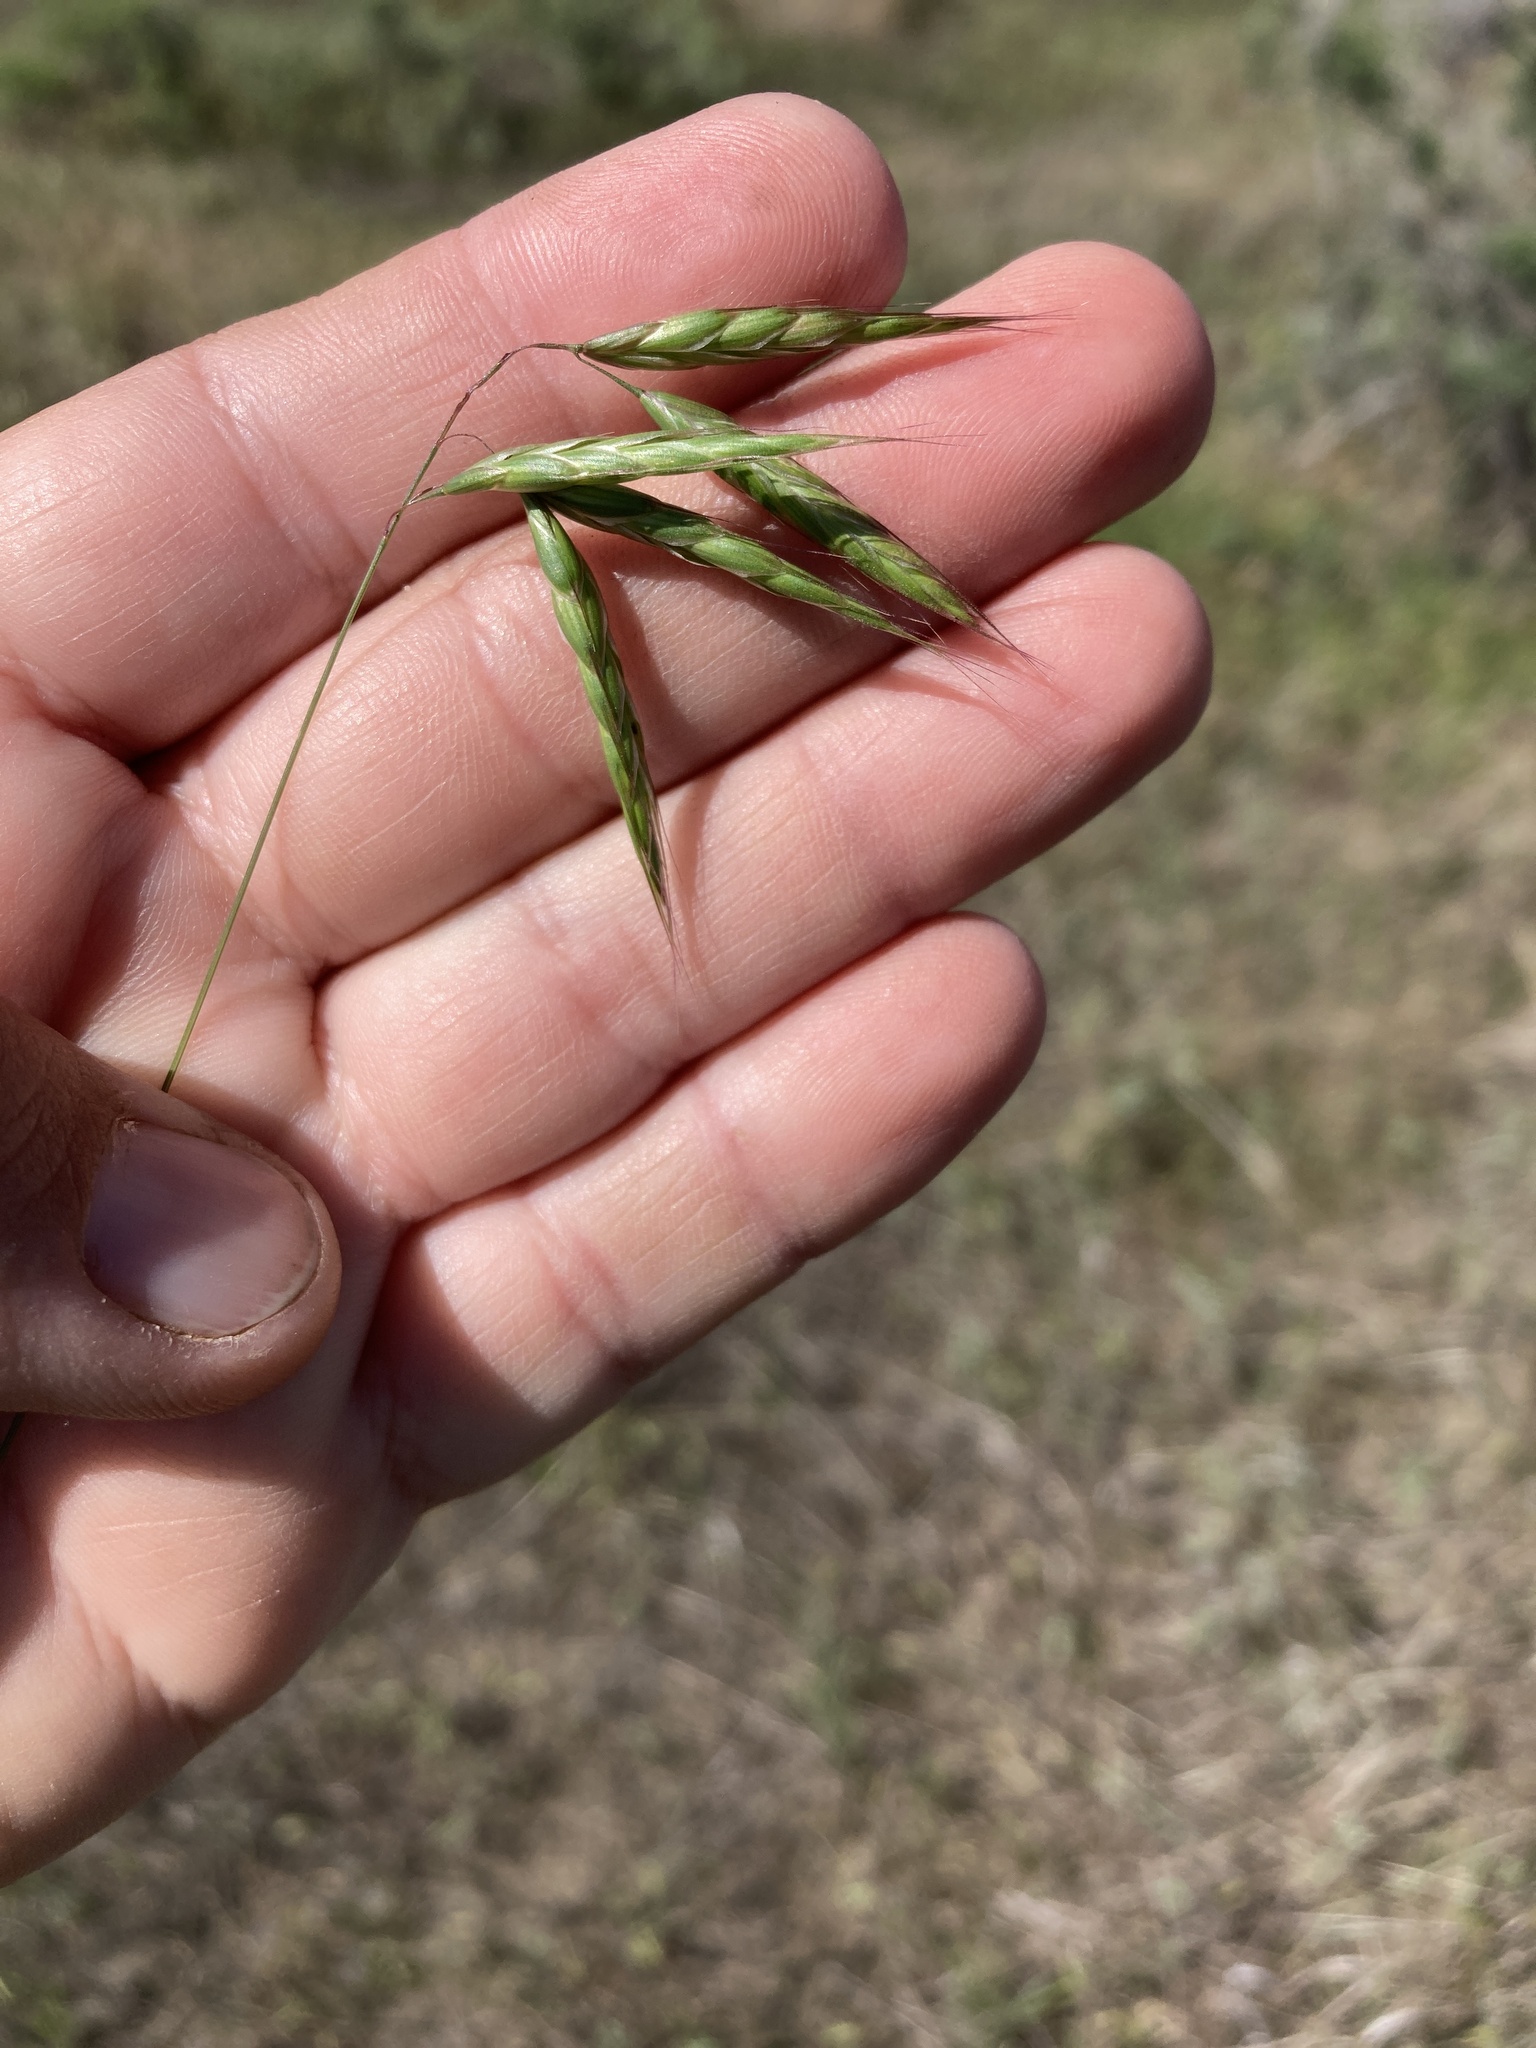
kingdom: Plantae
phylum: Tracheophyta
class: Liliopsida
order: Poales
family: Poaceae
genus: Bromus
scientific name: Bromus japonicus
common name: Japanese brome
